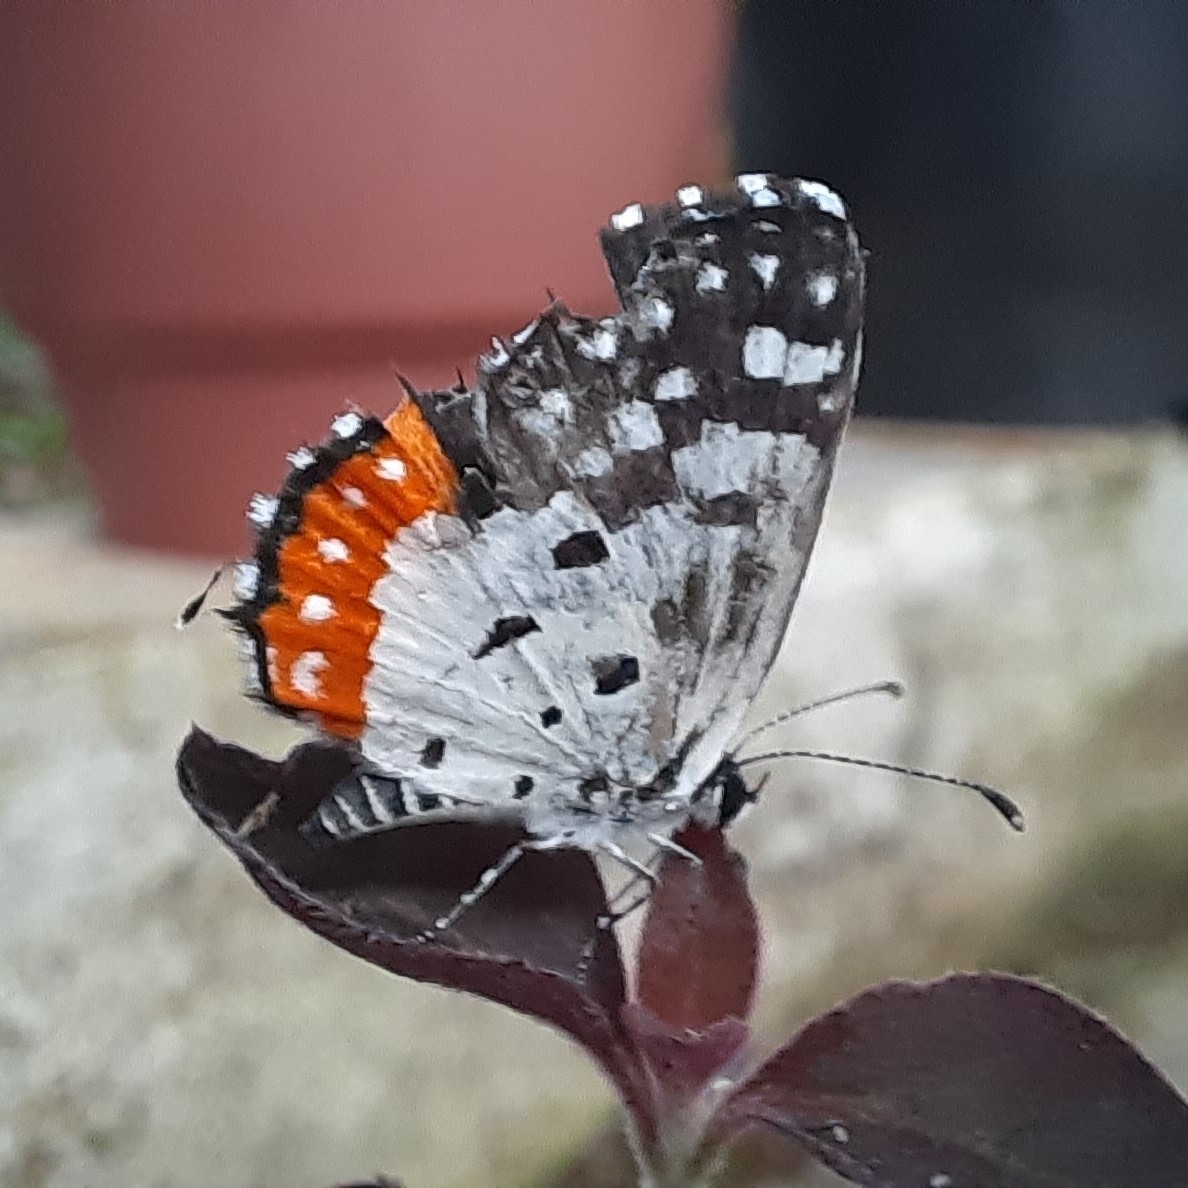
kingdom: Animalia
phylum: Arthropoda
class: Insecta
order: Lepidoptera
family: Lycaenidae
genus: Talicada
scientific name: Talicada nyseus
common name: Red pierrot
